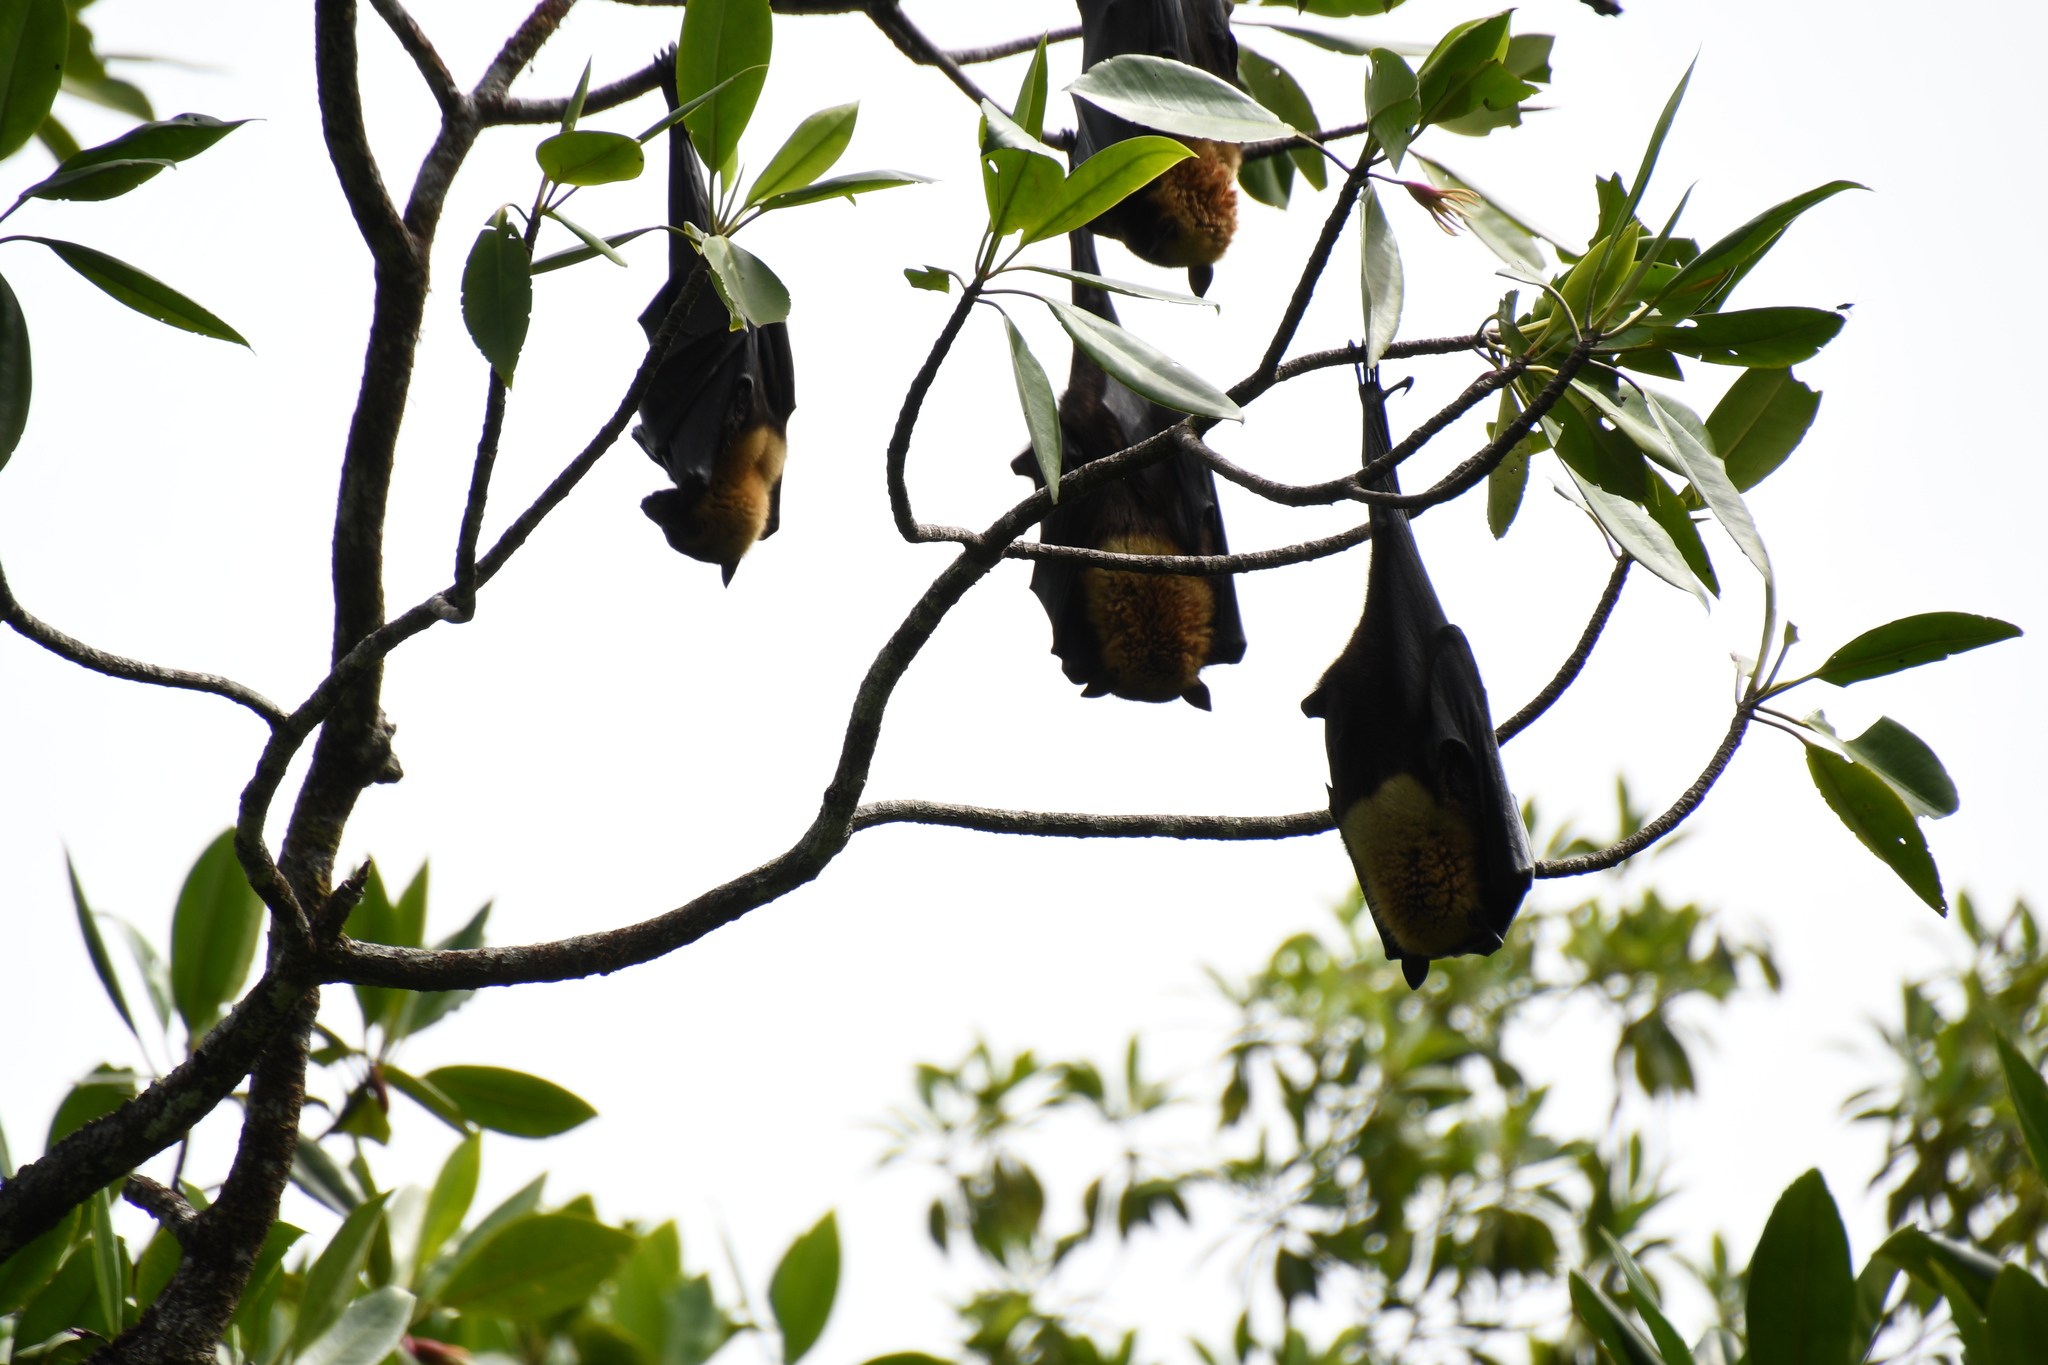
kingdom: Animalia
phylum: Chordata
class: Mammalia
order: Chiroptera
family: Pteropodidae
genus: Pteropus
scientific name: Pteropus conspicillatus
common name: Spectacled flying fox
